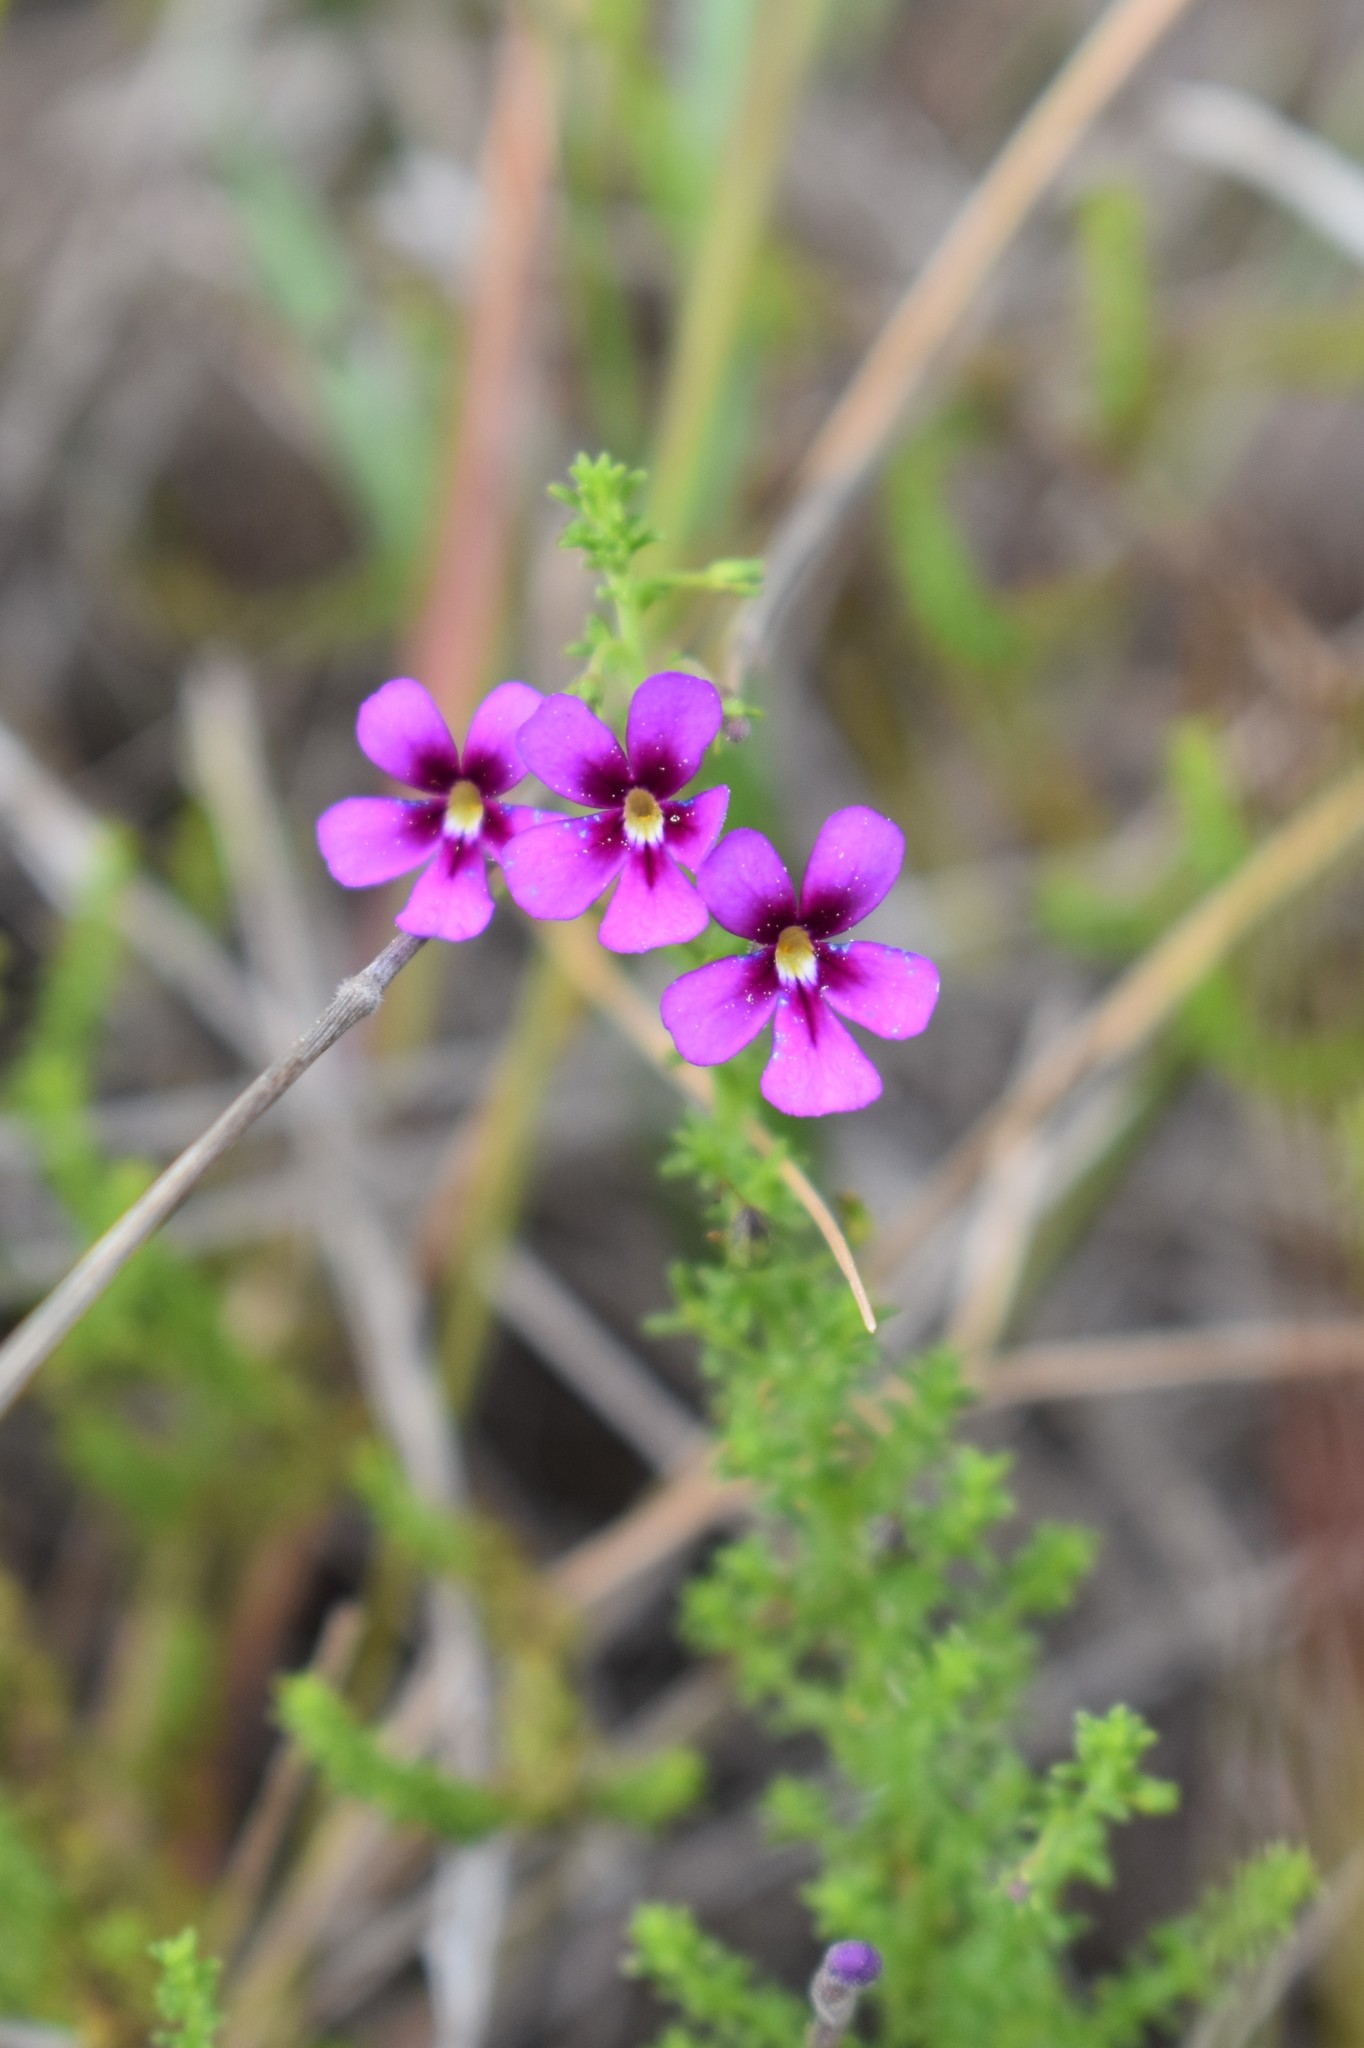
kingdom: Plantae
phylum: Tracheophyta
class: Magnoliopsida
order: Lamiales
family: Scrophulariaceae
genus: Jamesbrittenia
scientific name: Jamesbrittenia microphylla
